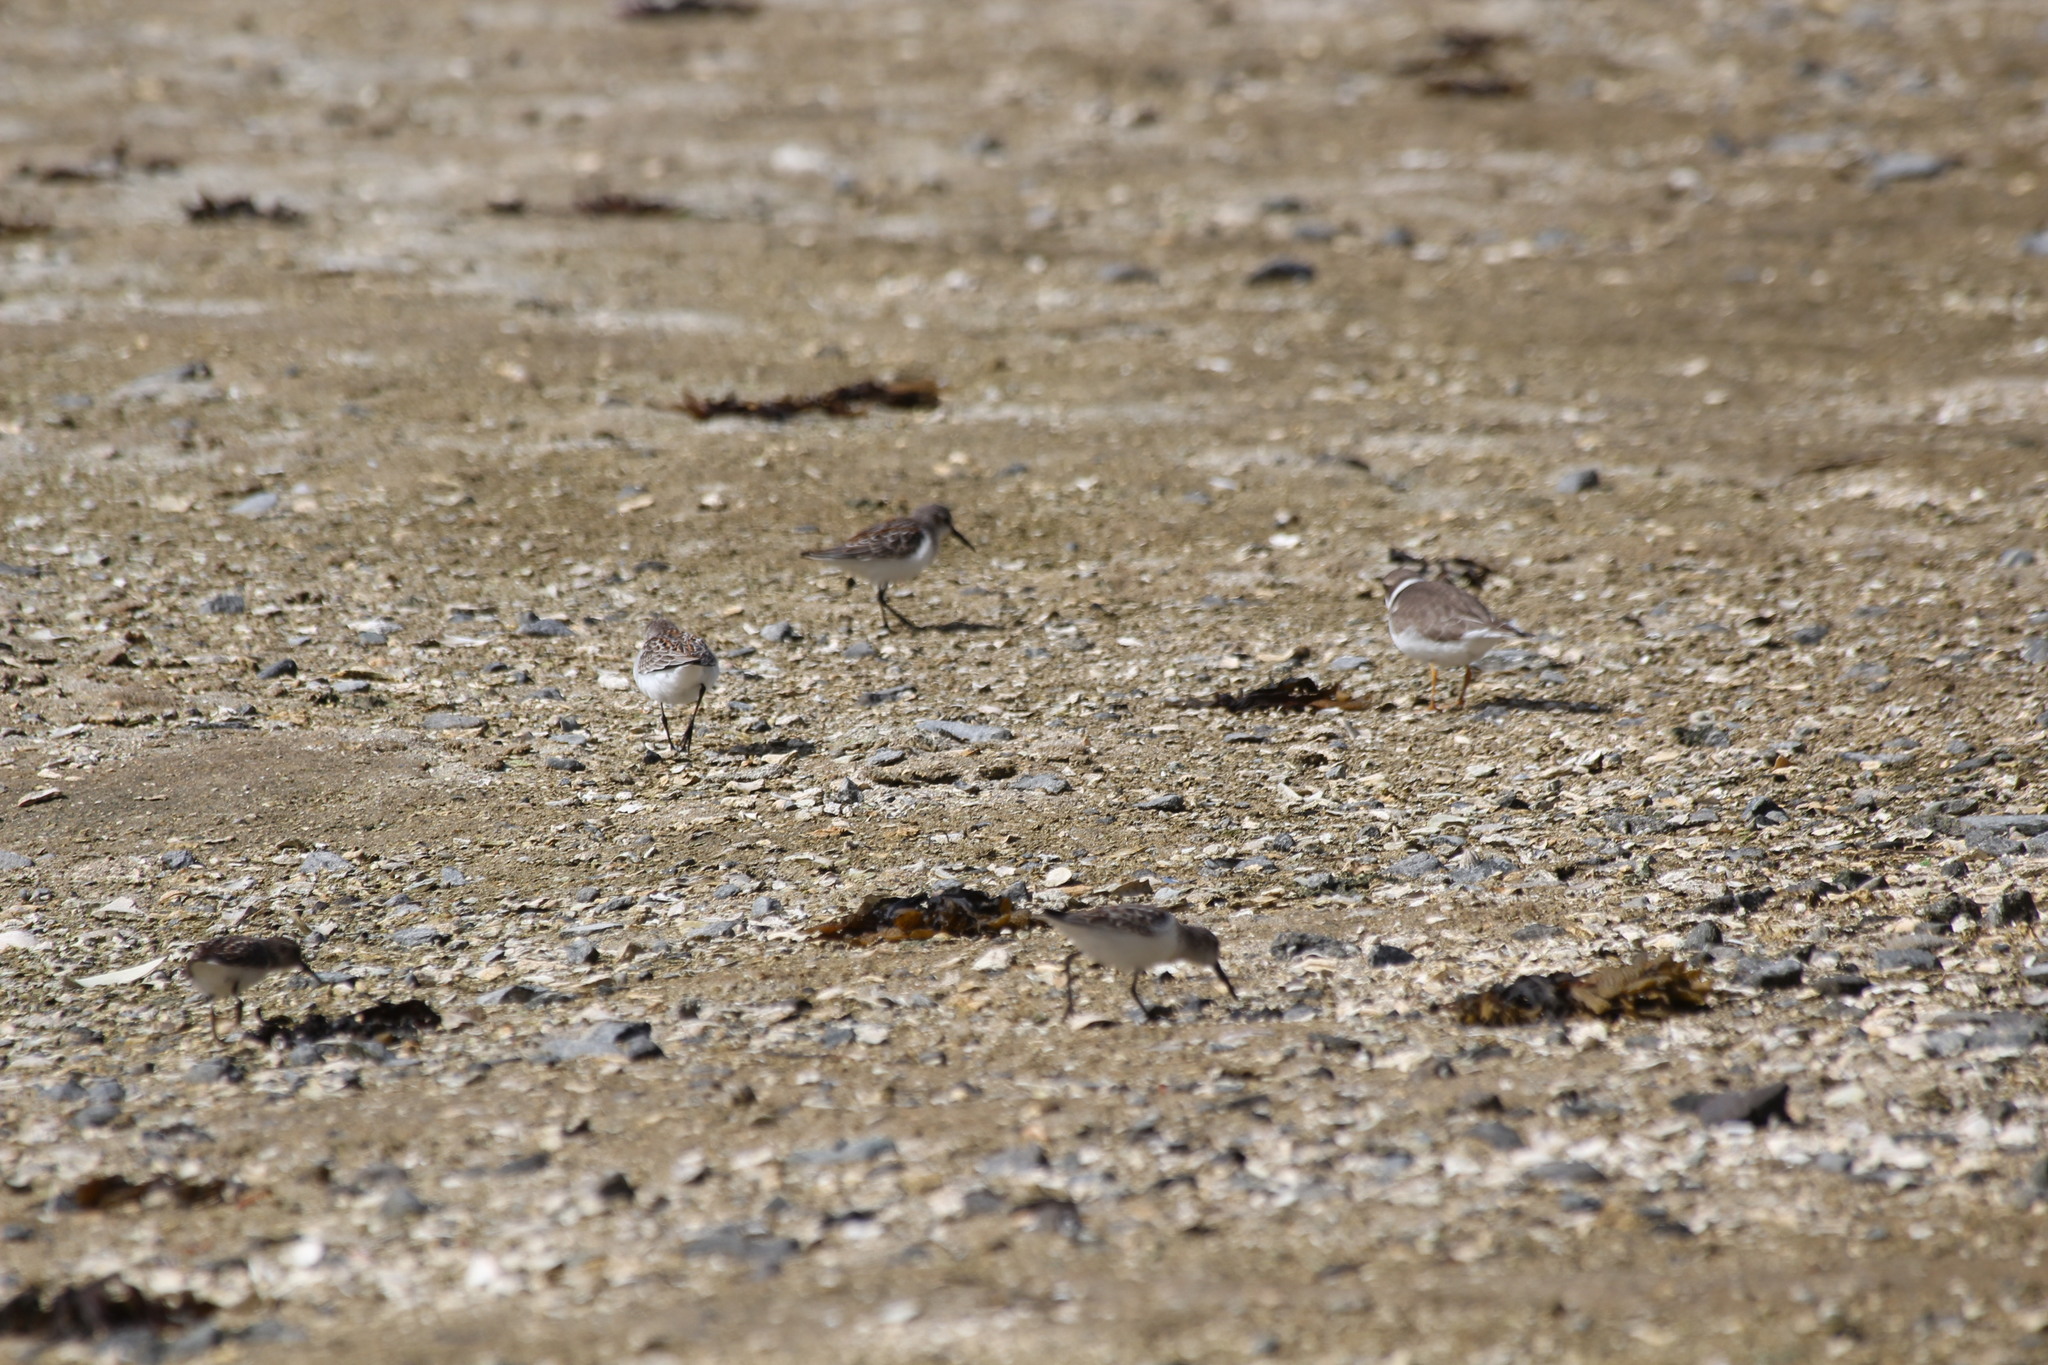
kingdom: Animalia
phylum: Chordata
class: Aves
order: Charadriiformes
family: Charadriidae
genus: Charadrius
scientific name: Charadrius semipalmatus
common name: Semipalmated plover
